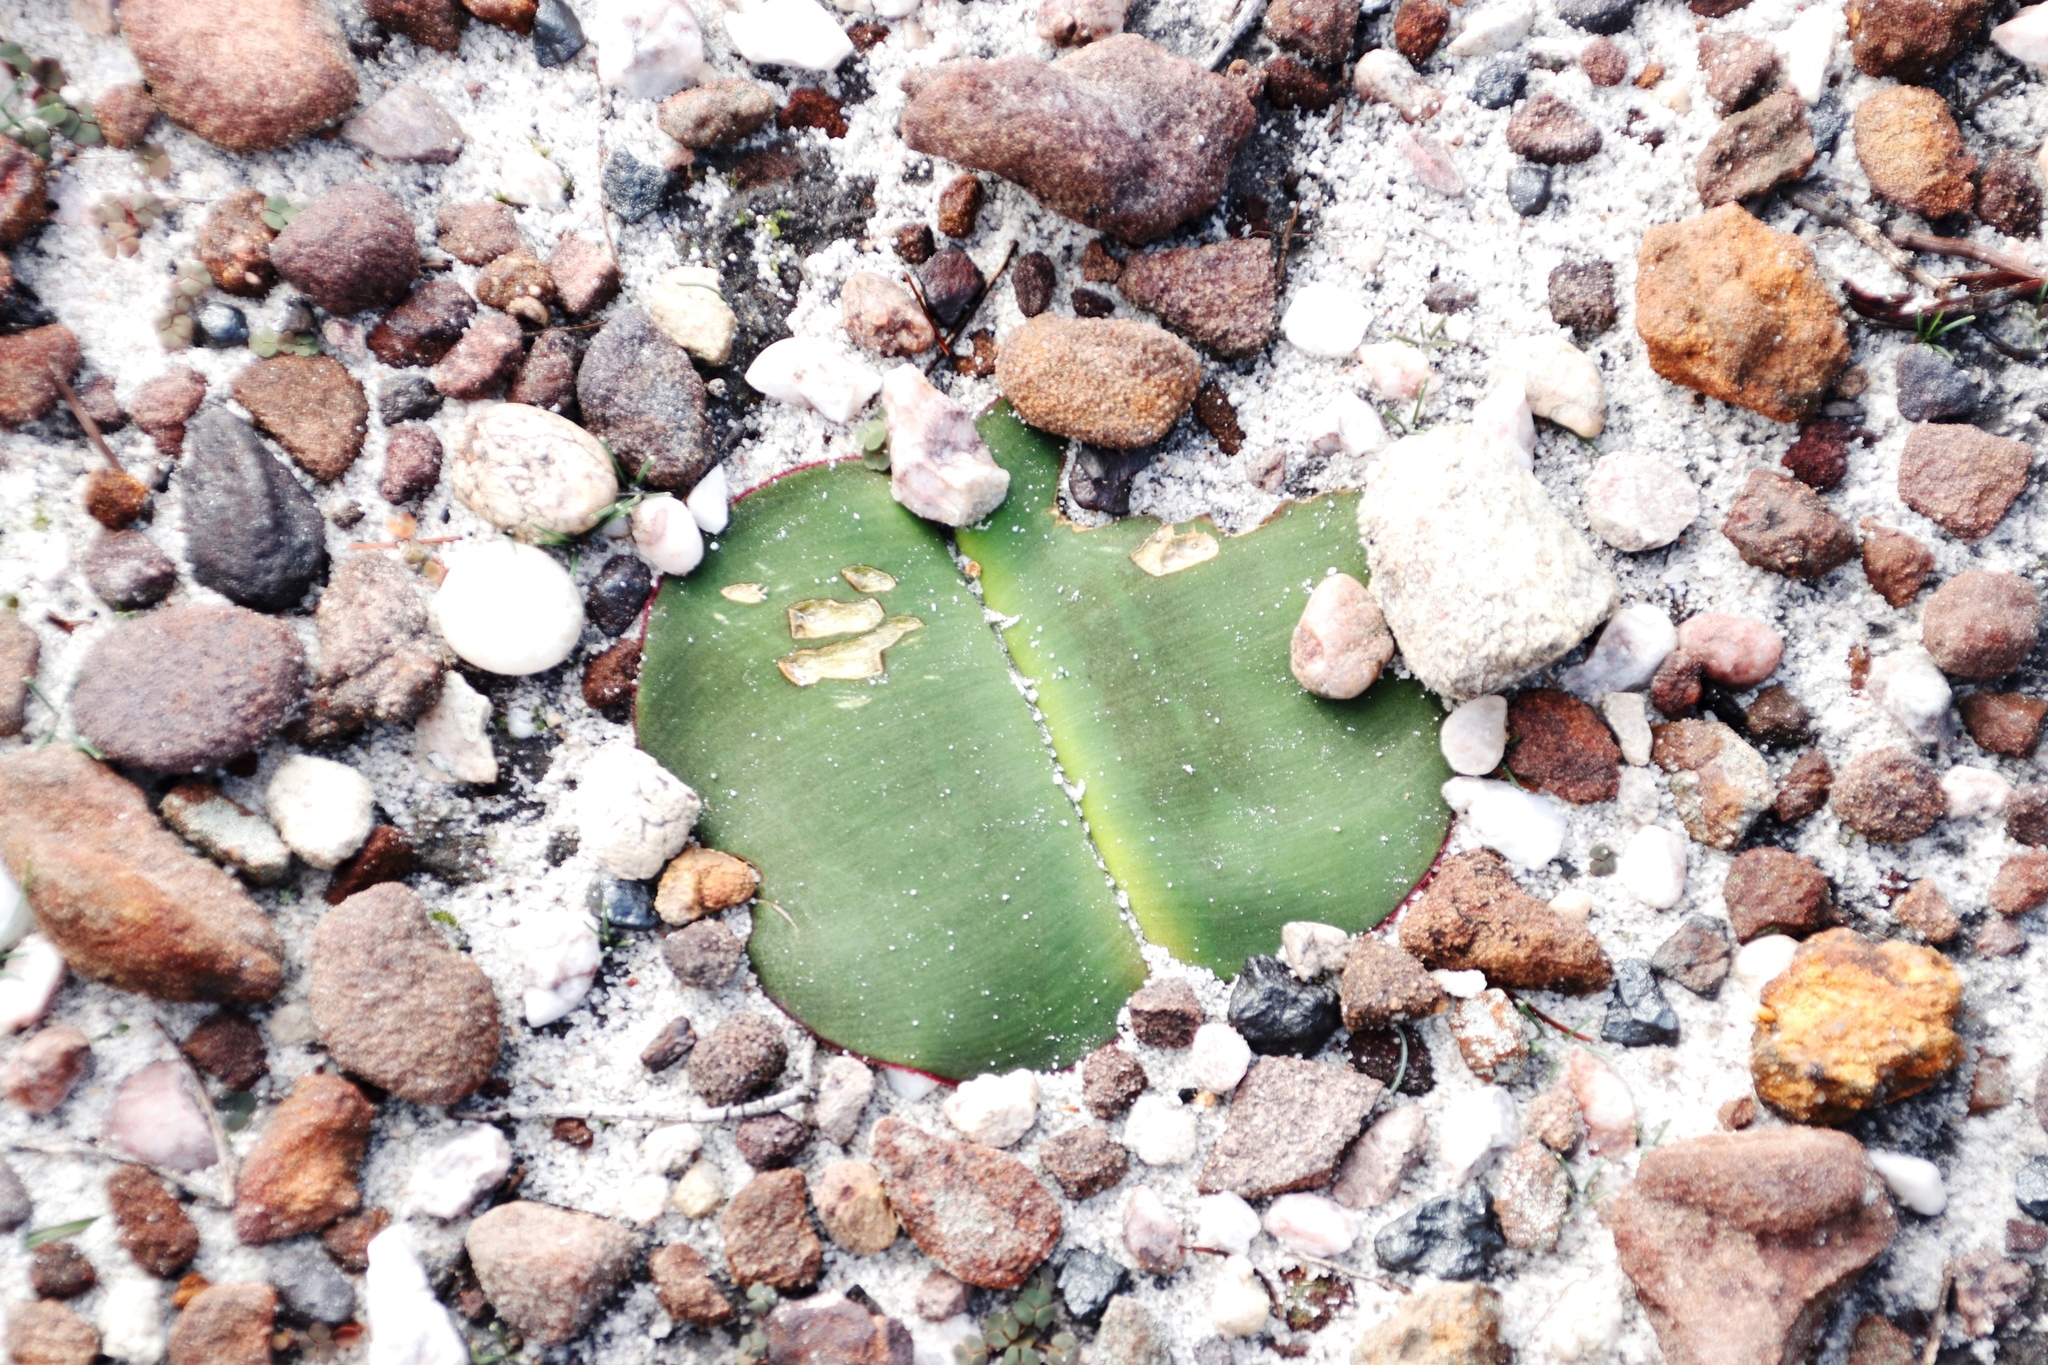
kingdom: Plantae
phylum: Tracheophyta
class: Liliopsida
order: Asparagales
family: Amaryllidaceae
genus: Haemanthus
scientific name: Haemanthus sanguineus
